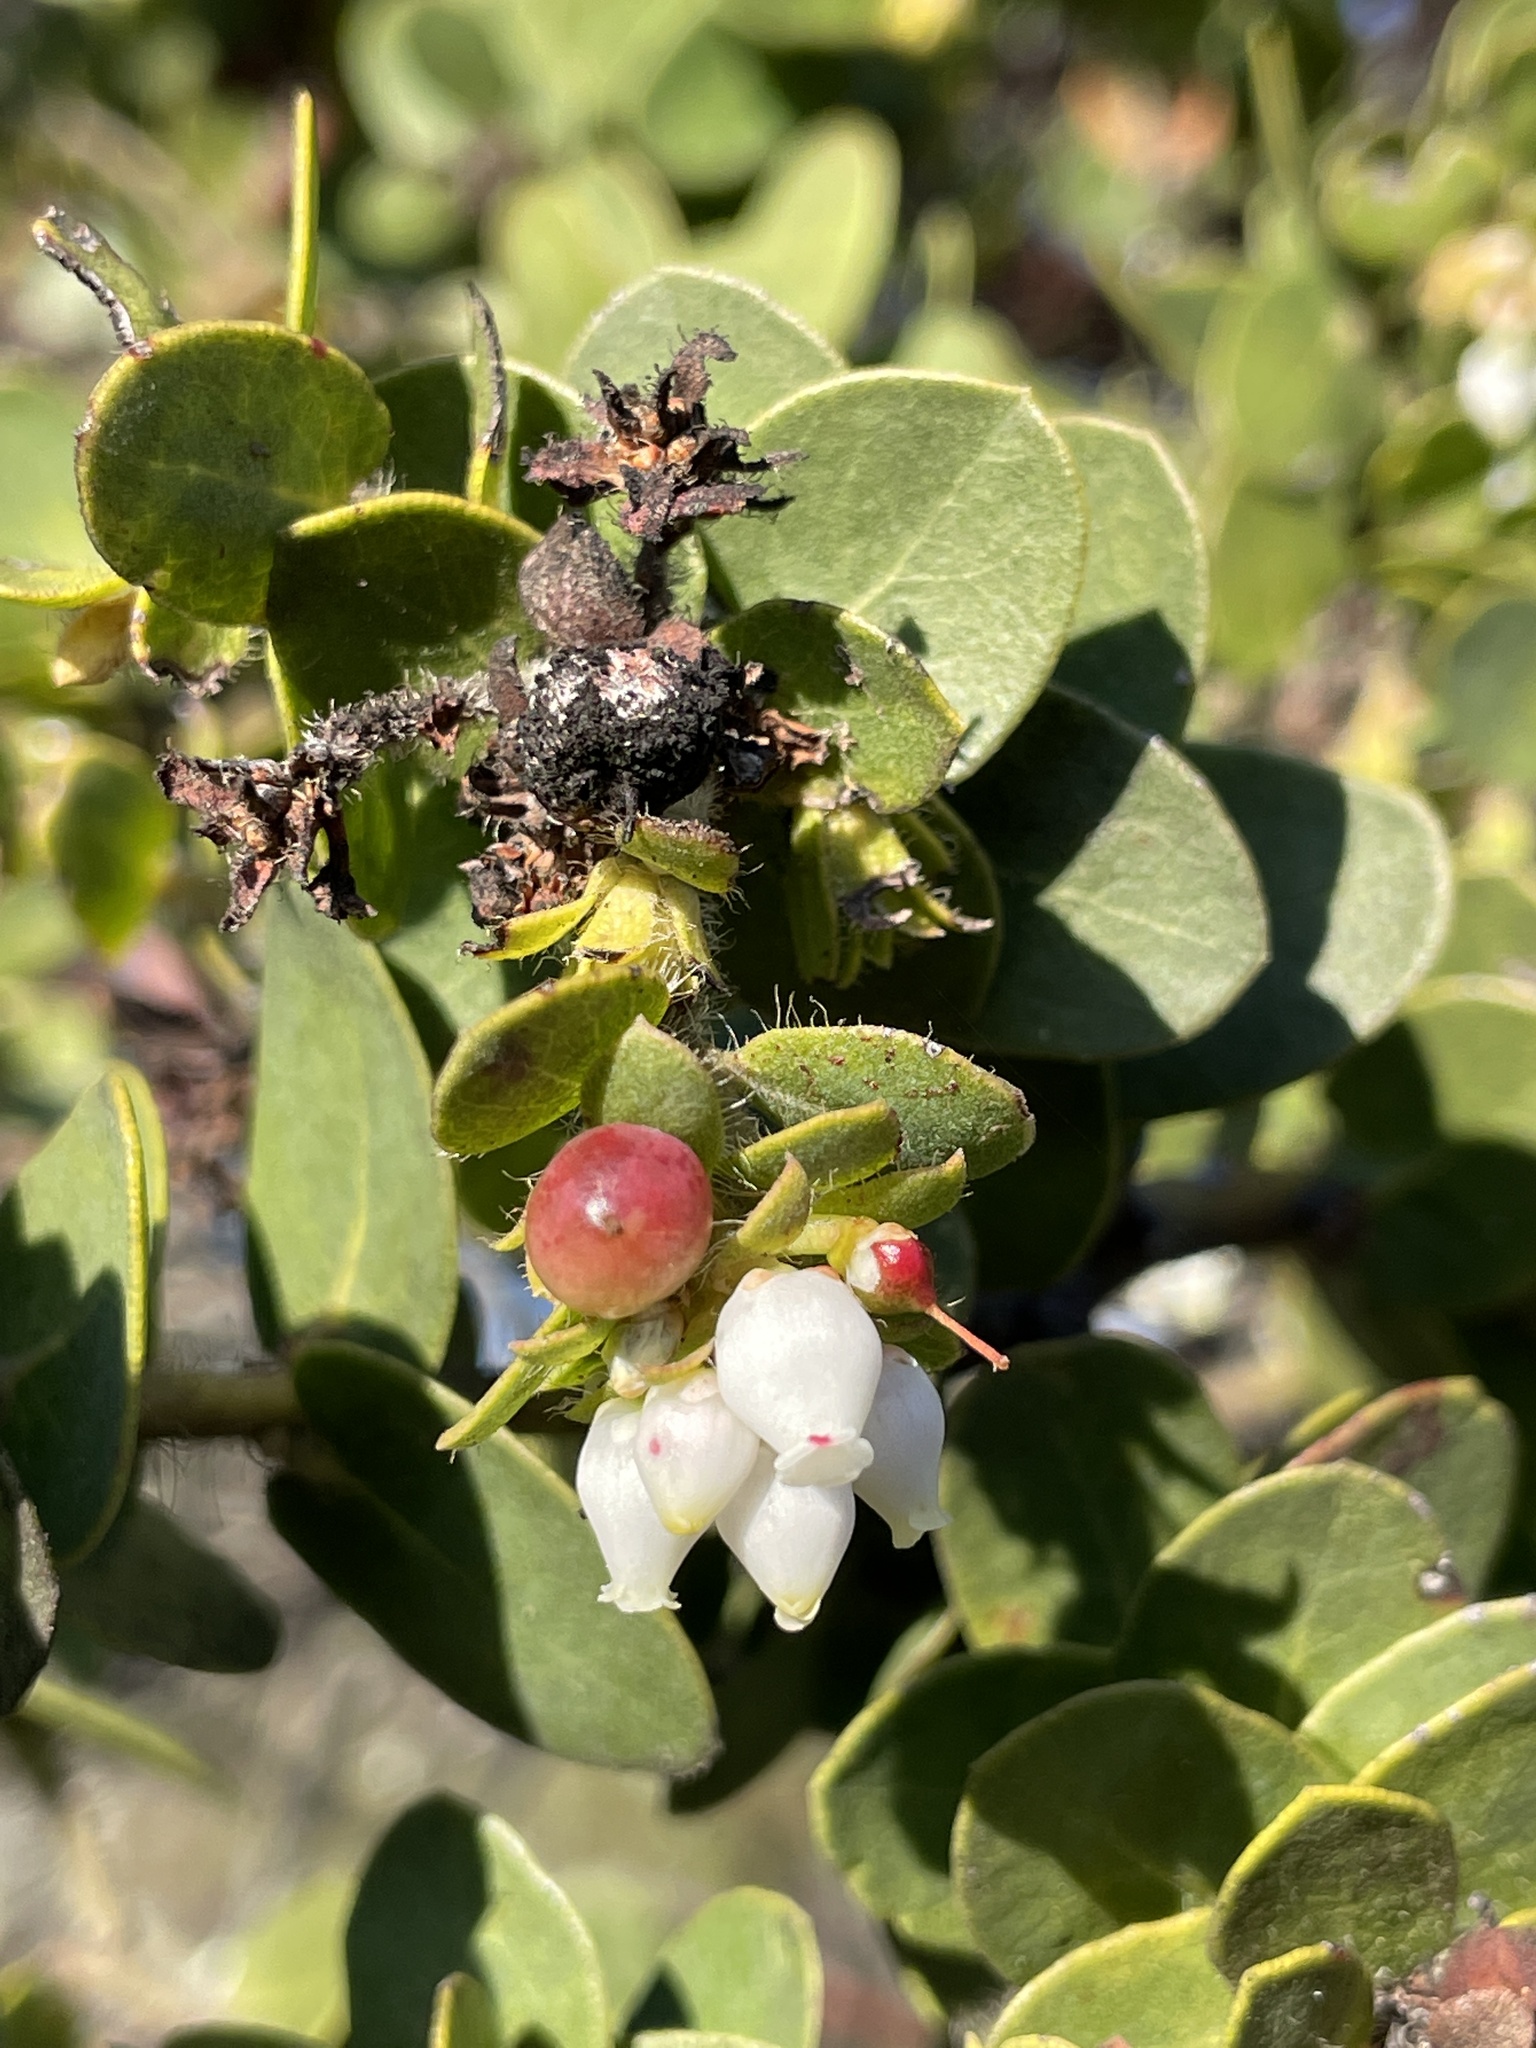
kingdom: Plantae
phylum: Tracheophyta
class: Magnoliopsida
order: Ericales
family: Ericaceae
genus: Arctostaphylos
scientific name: Arctostaphylos purissima
